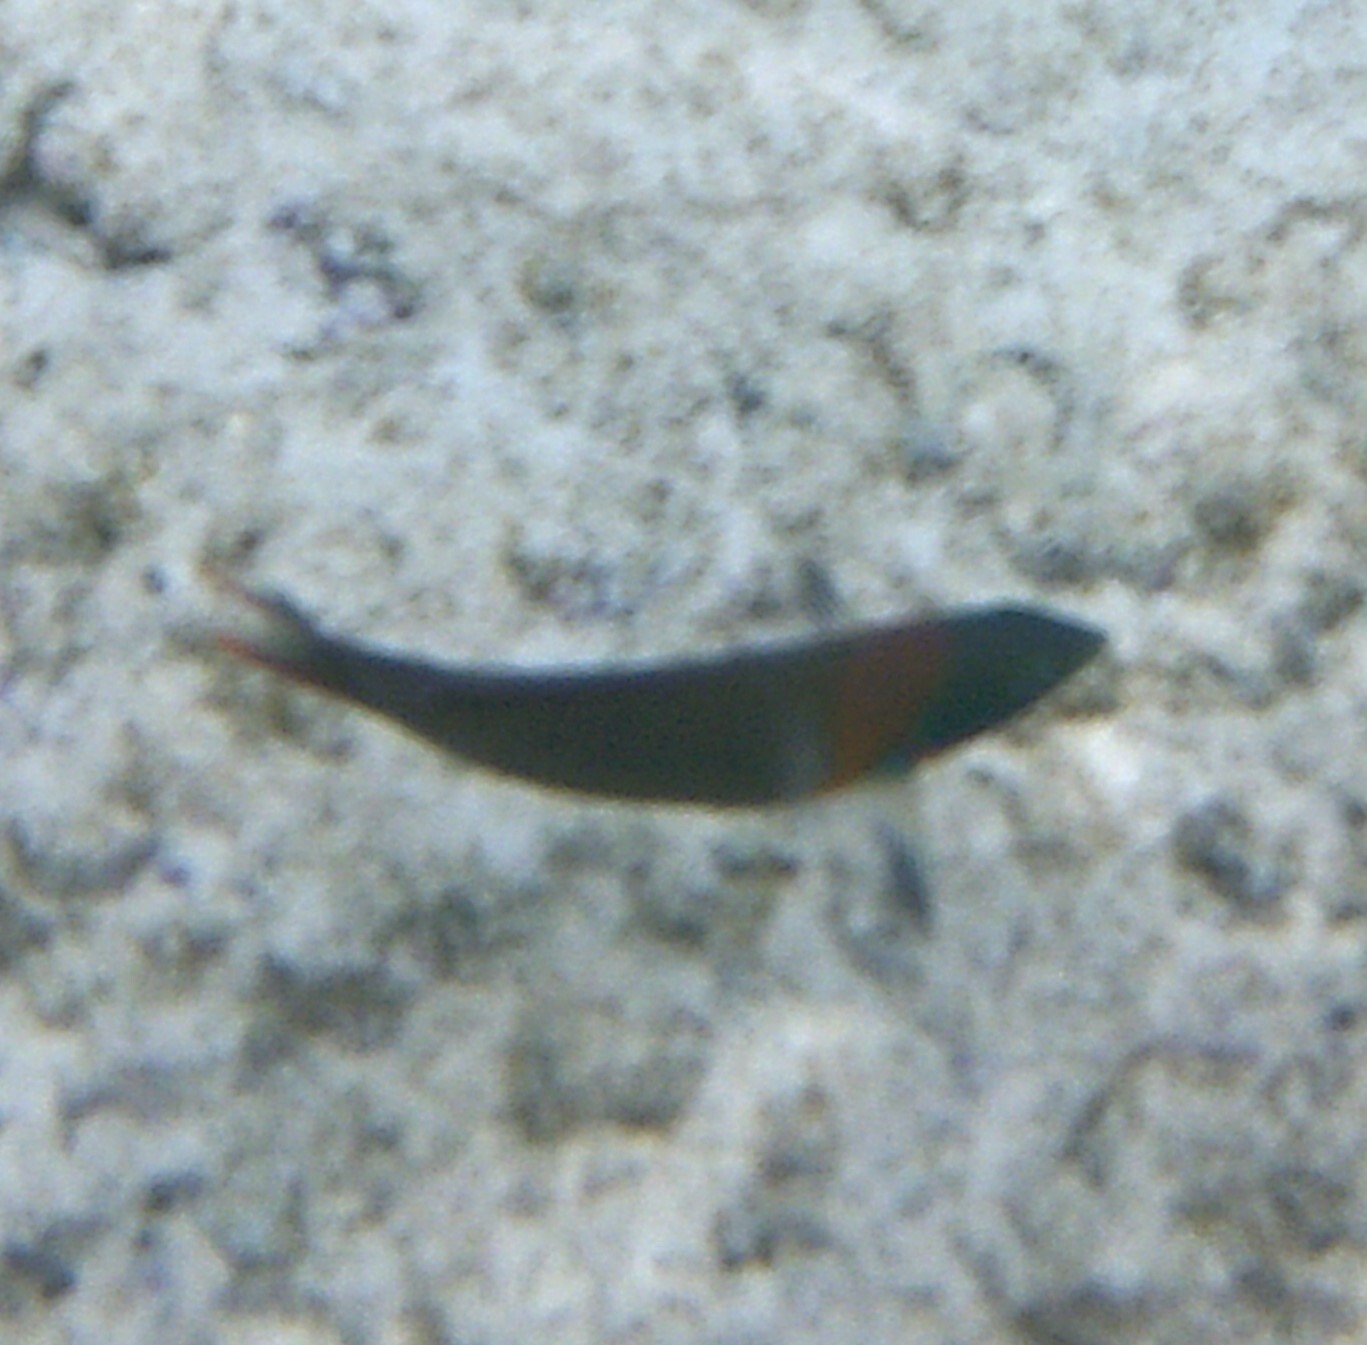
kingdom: Animalia
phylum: Chordata
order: Perciformes
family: Labridae
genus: Thalassoma
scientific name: Thalassoma duperrey
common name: Saddle wrasse
